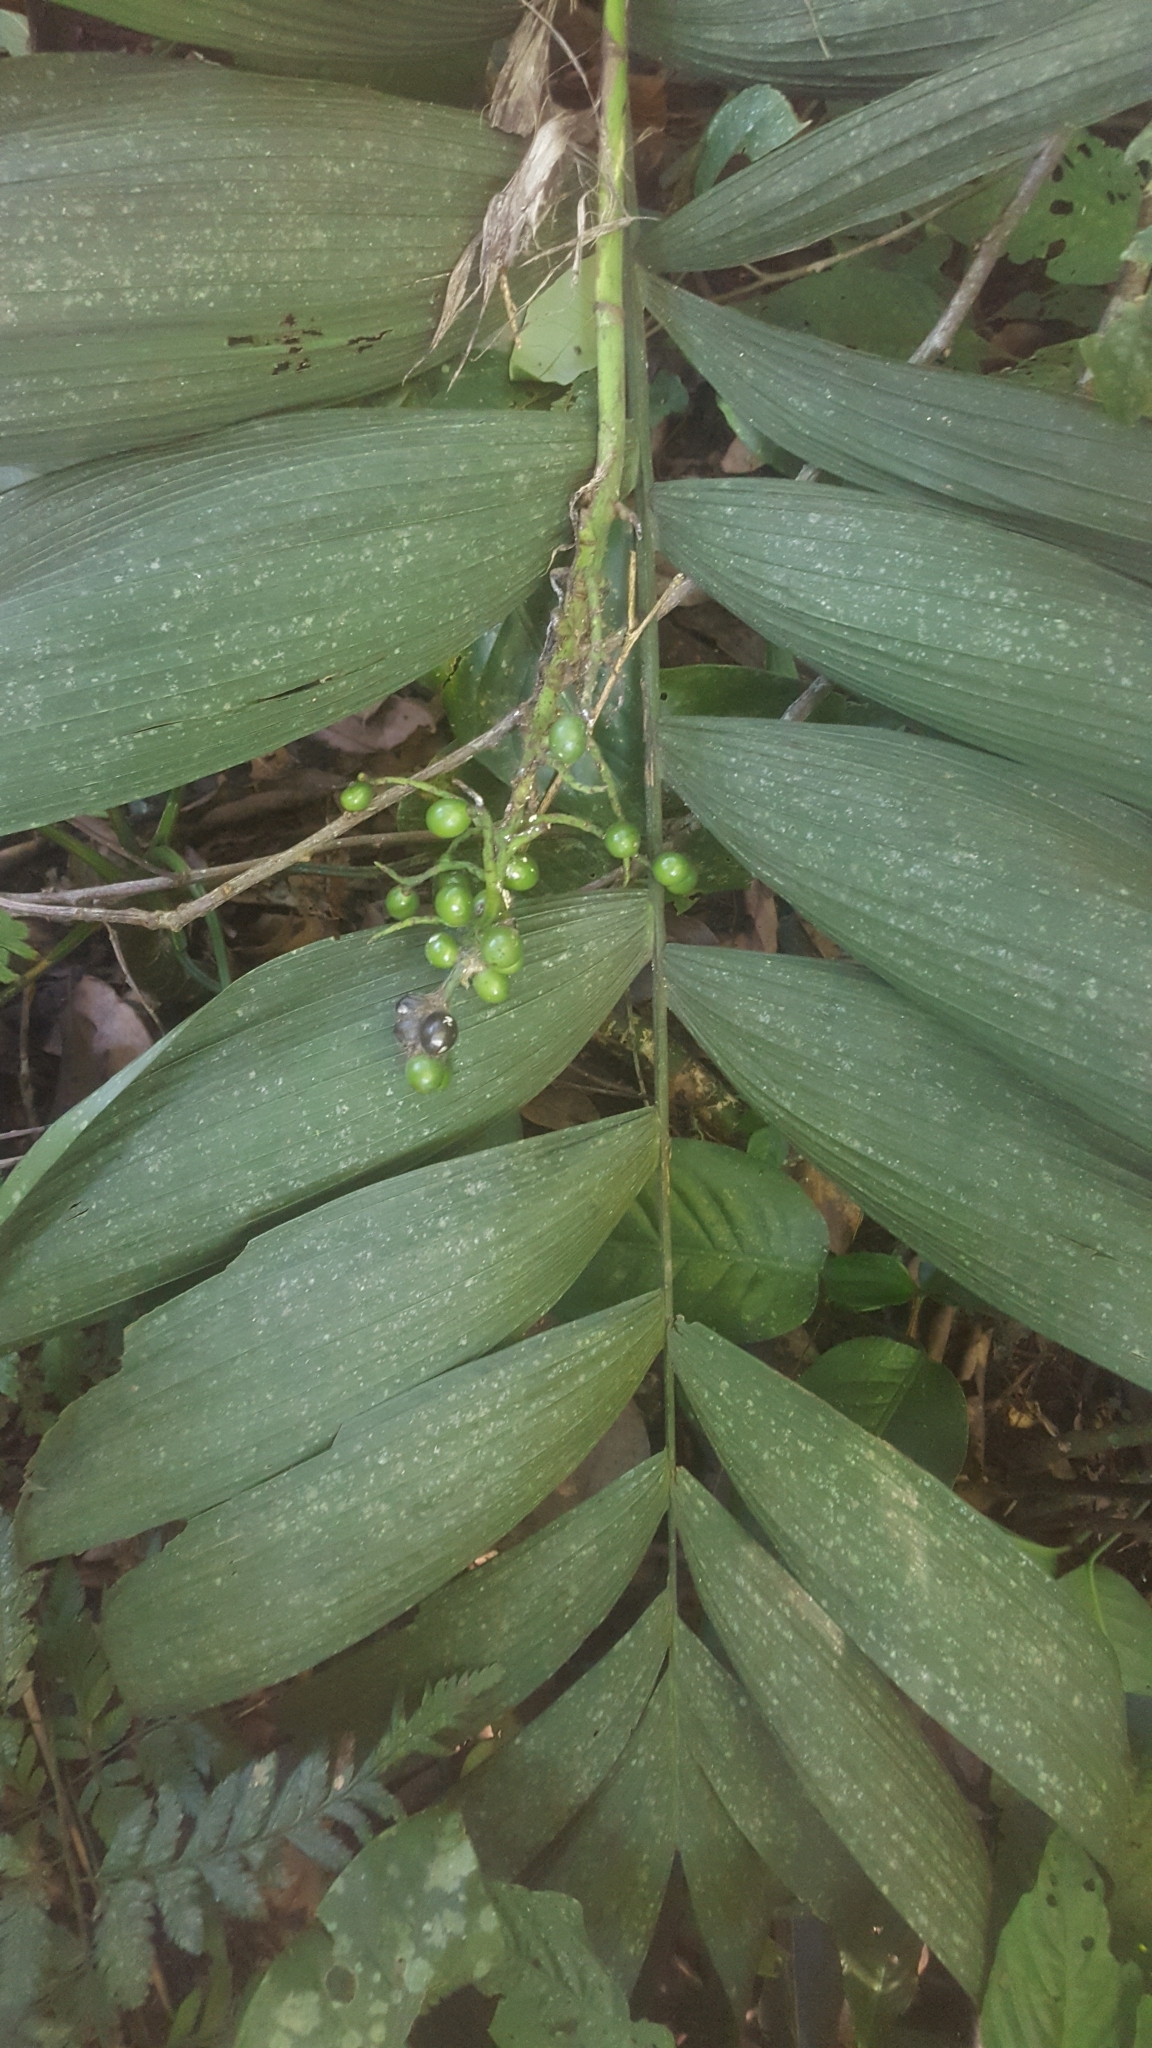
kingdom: Plantae
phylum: Tracheophyta
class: Liliopsida
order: Arecales
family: Arecaceae
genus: Chamaedorea
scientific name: Chamaedorea linearis
